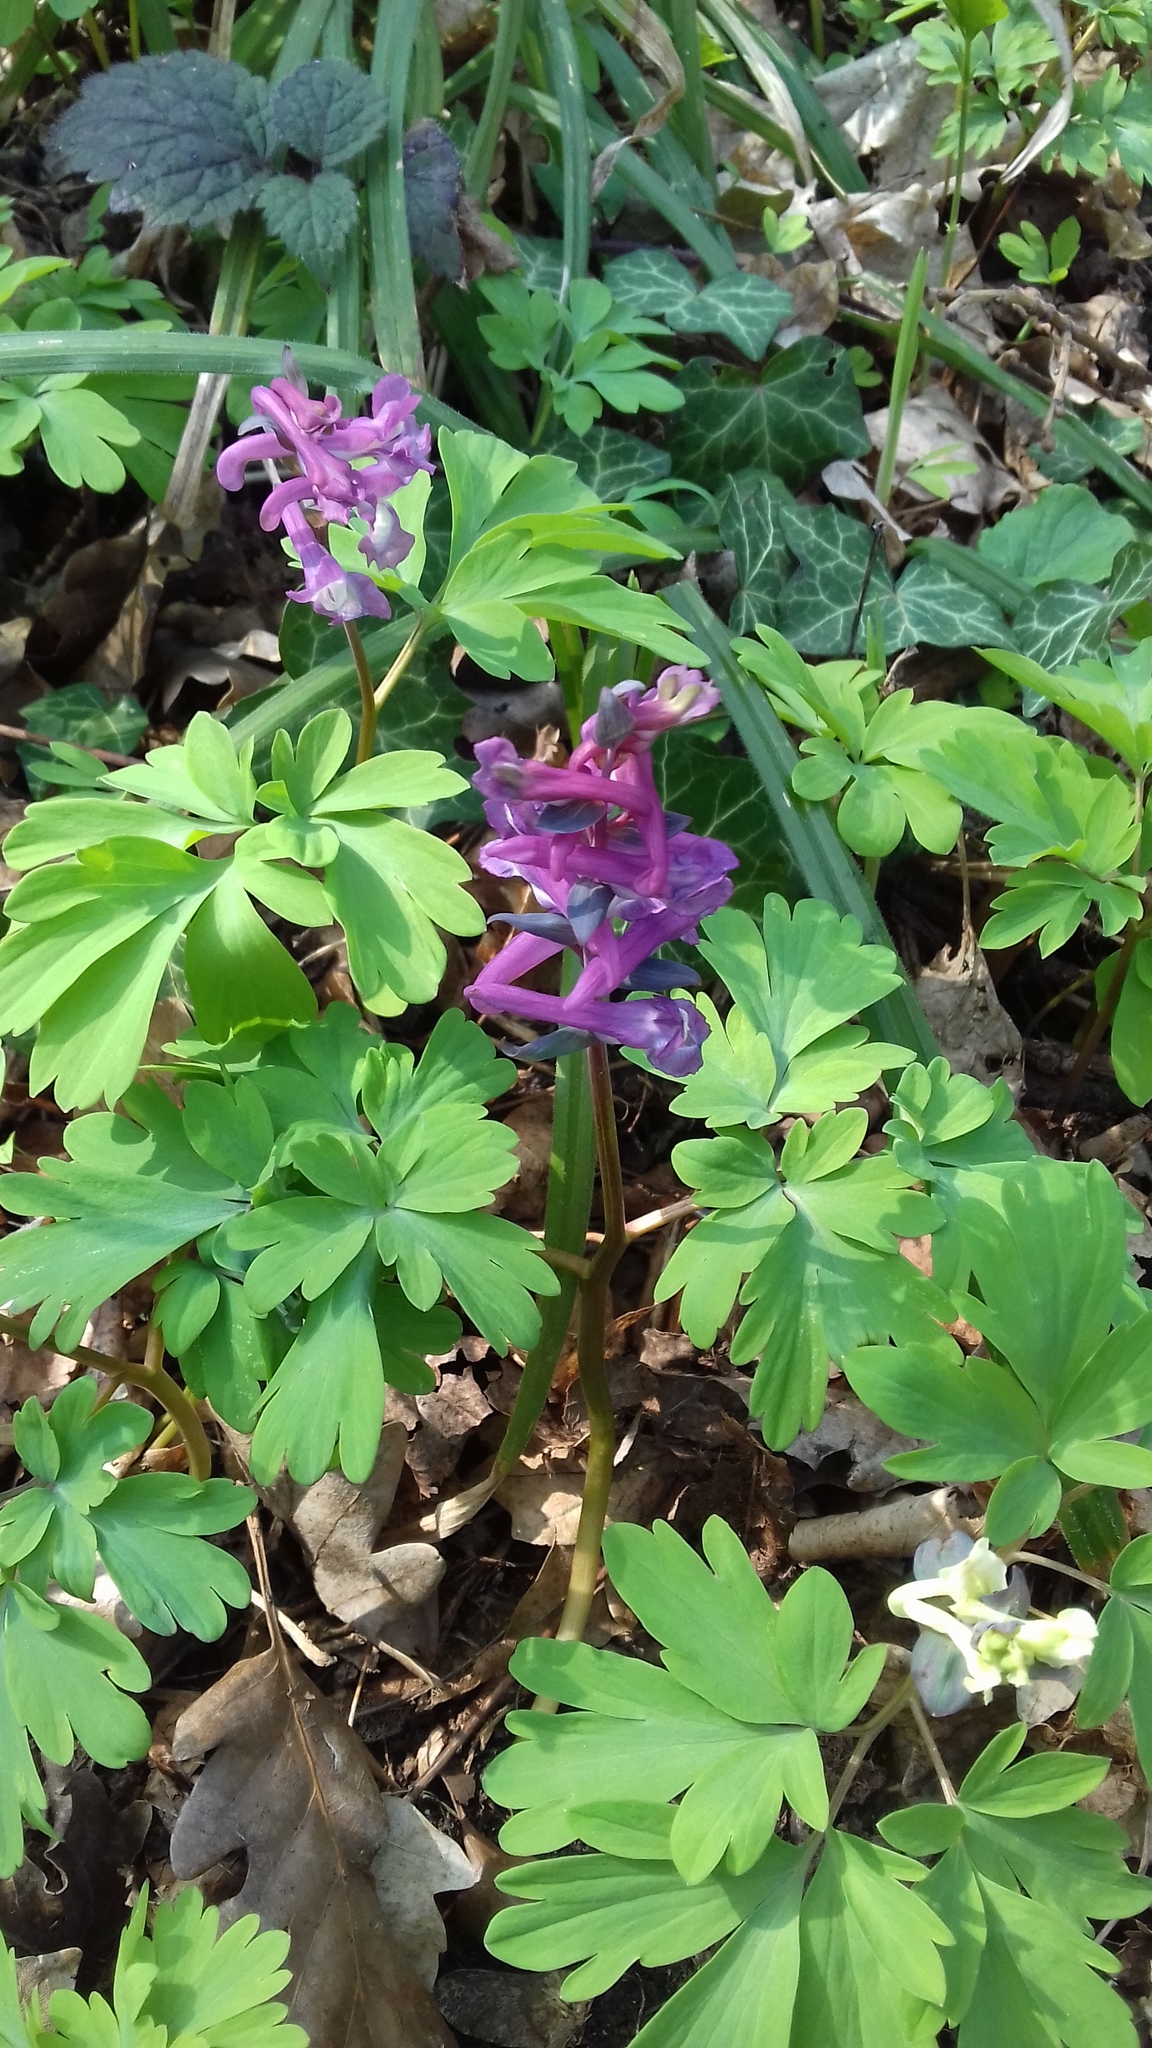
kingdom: Plantae
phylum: Tracheophyta
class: Magnoliopsida
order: Ranunculales
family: Papaveraceae
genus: Corydalis
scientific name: Corydalis cava
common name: Hollowroot
